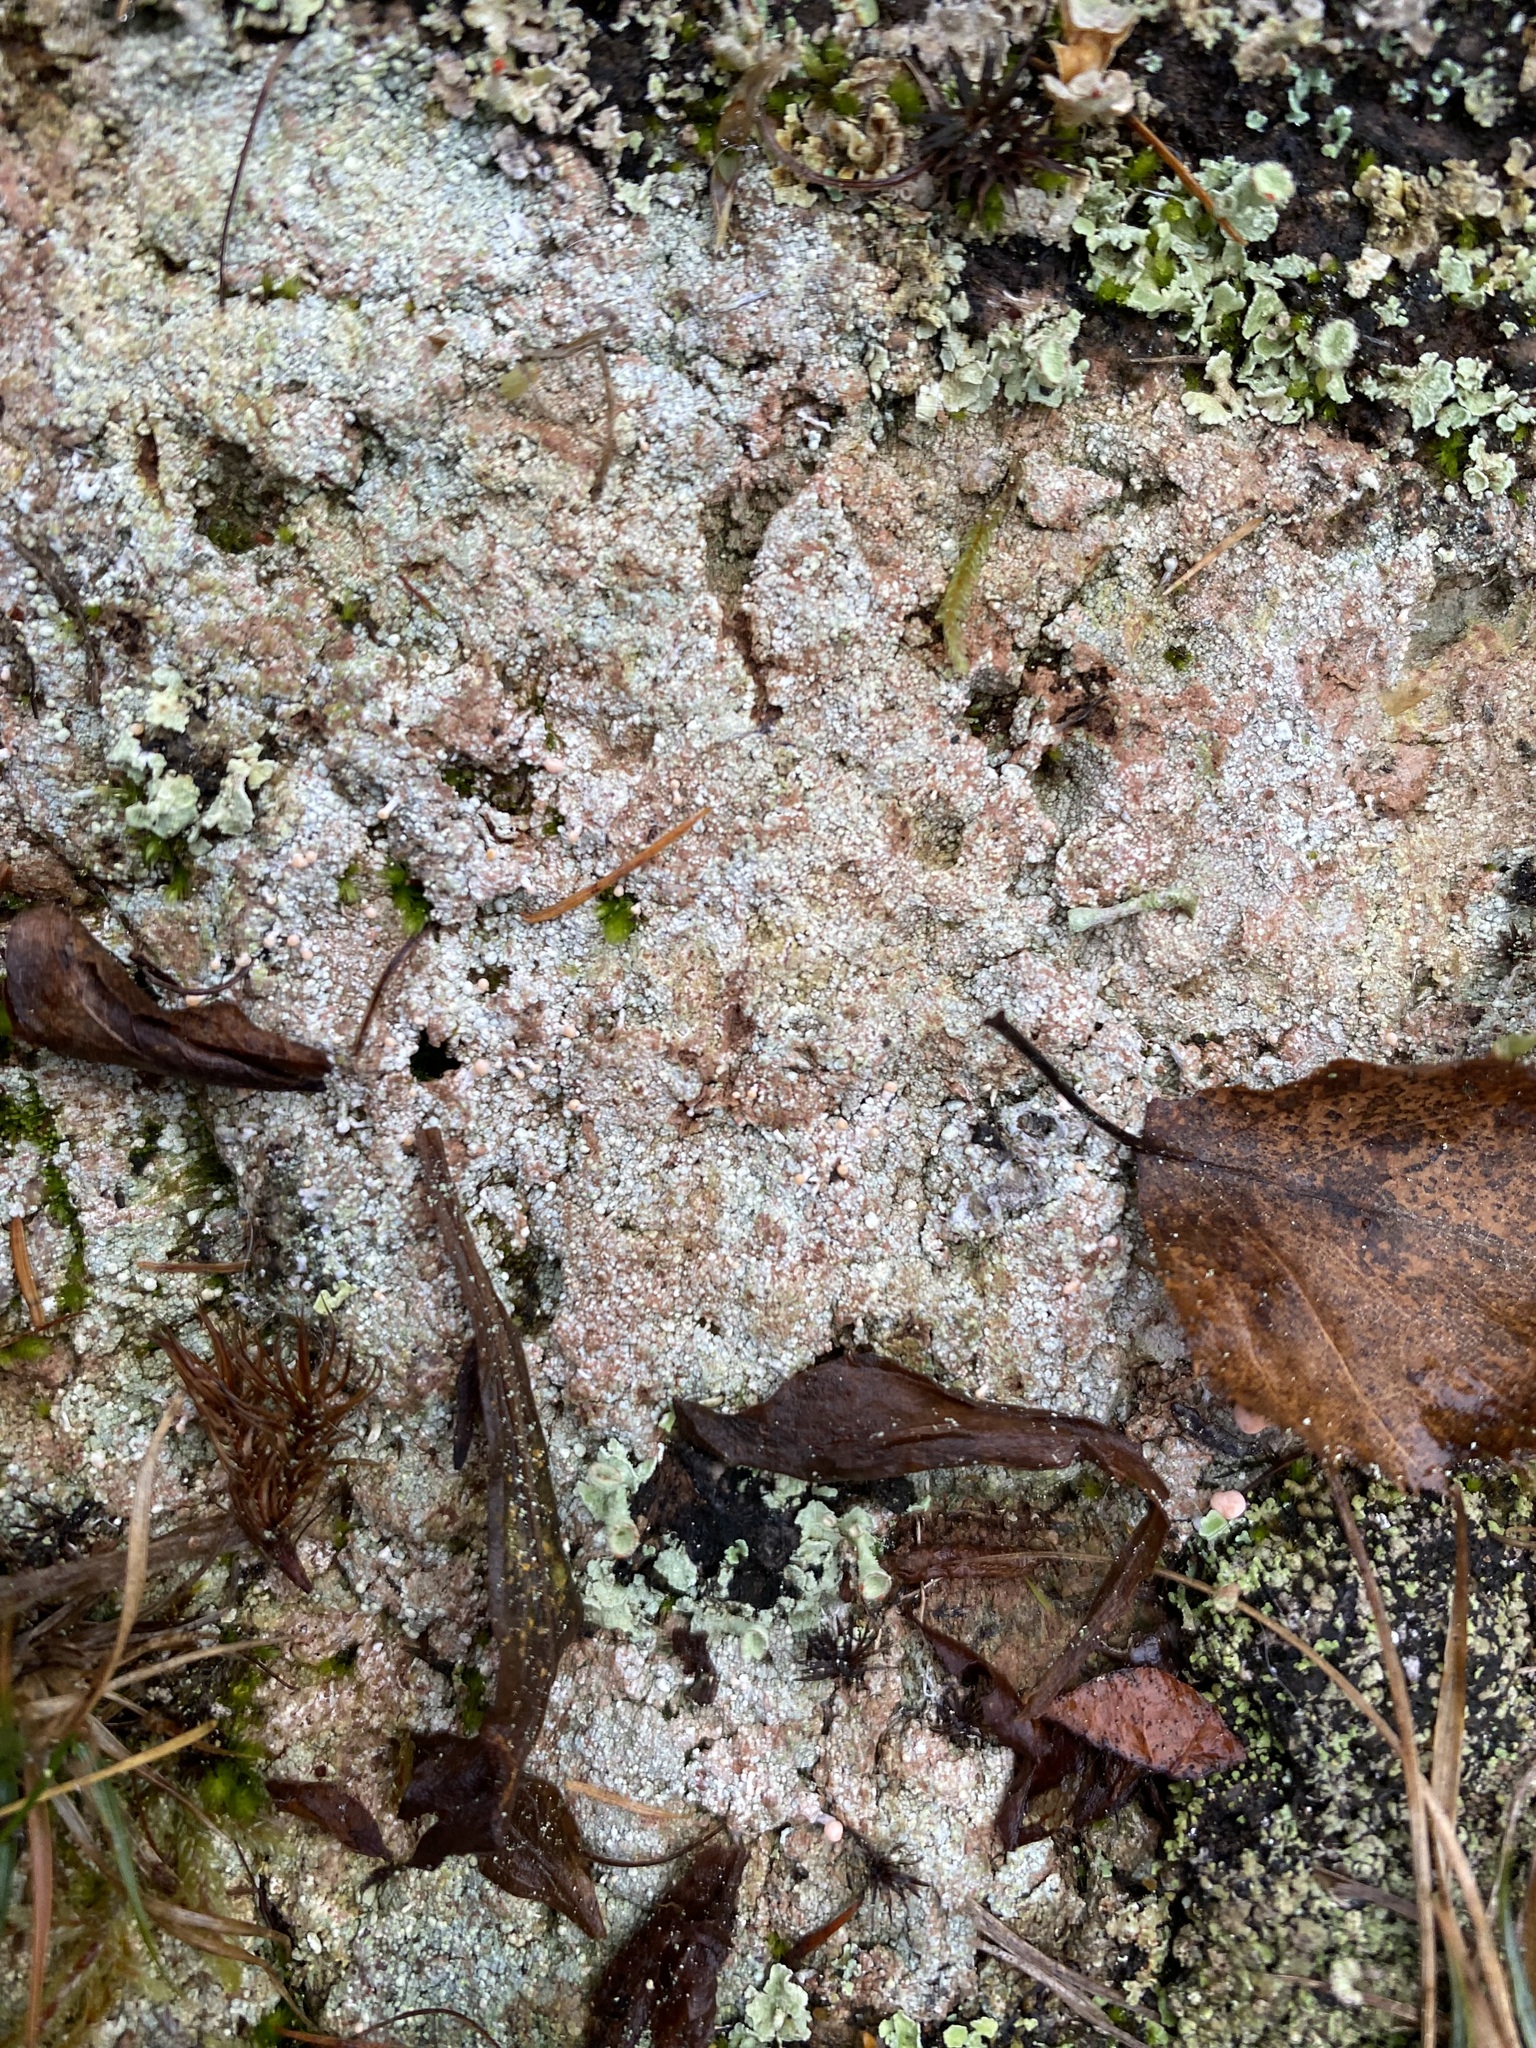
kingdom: Fungi
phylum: Ascomycota
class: Lecanoromycetes
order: Pertusariales
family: Icmadophilaceae
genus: Dibaeis
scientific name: Dibaeis baeomyces
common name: Pink earth lichen
